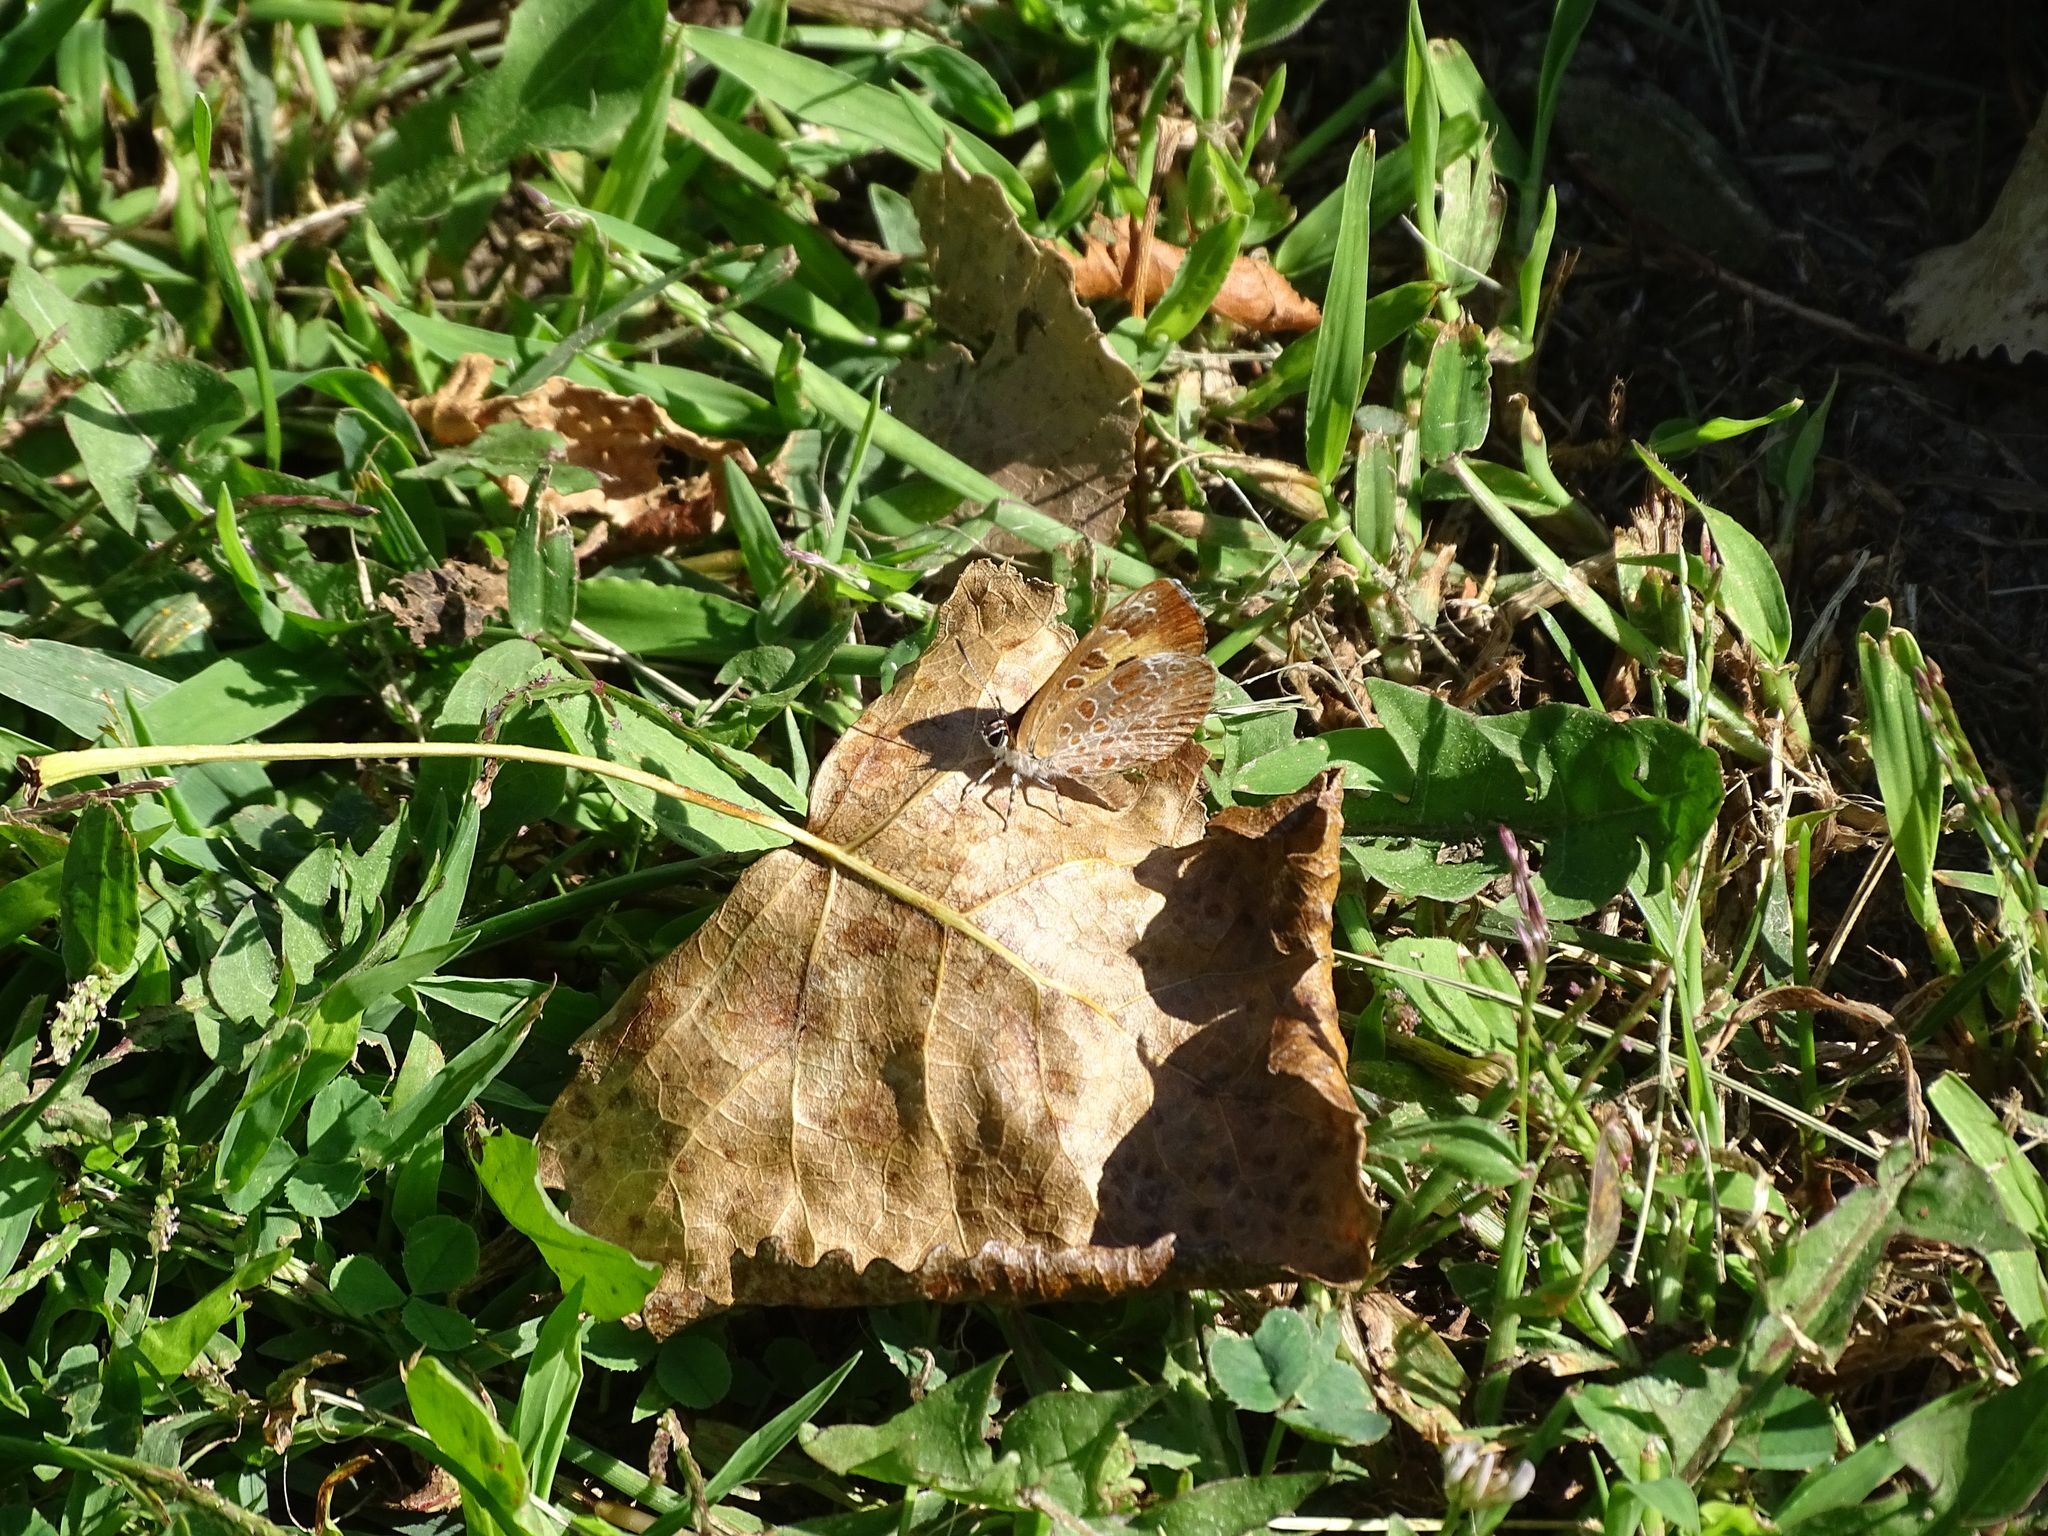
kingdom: Animalia
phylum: Arthropoda
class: Insecta
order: Lepidoptera
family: Lycaenidae
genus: Feniseca
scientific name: Feniseca tarquinius
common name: Harvester
